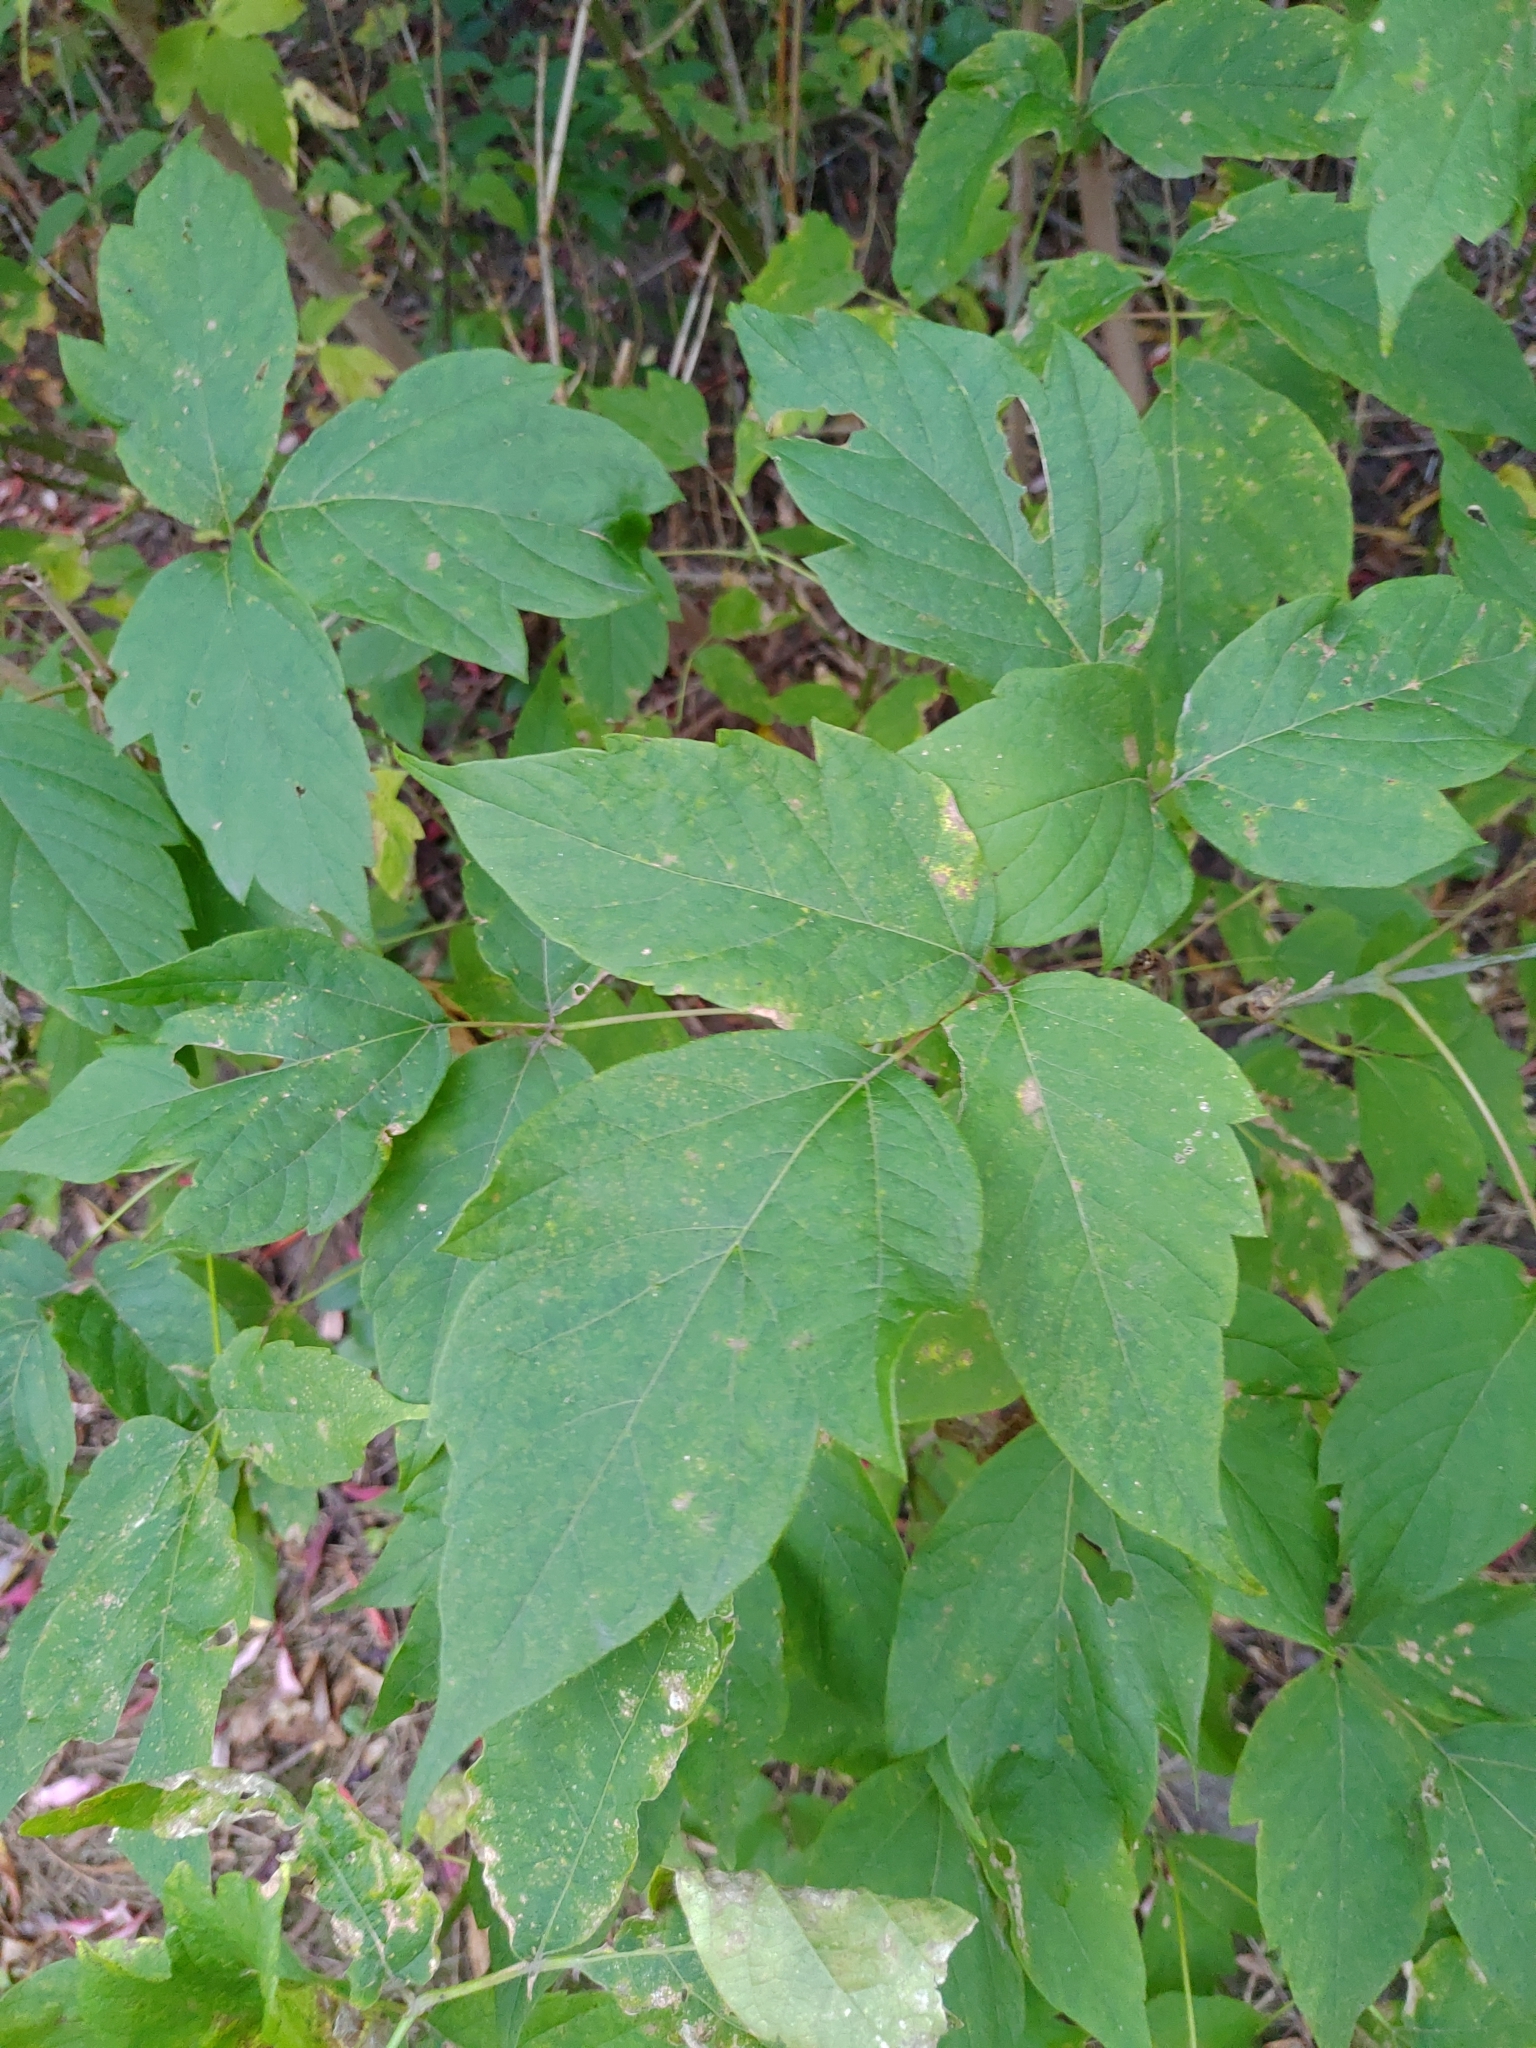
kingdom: Plantae
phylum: Tracheophyta
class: Magnoliopsida
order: Sapindales
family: Sapindaceae
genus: Acer
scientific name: Acer negundo
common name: Ashleaf maple
